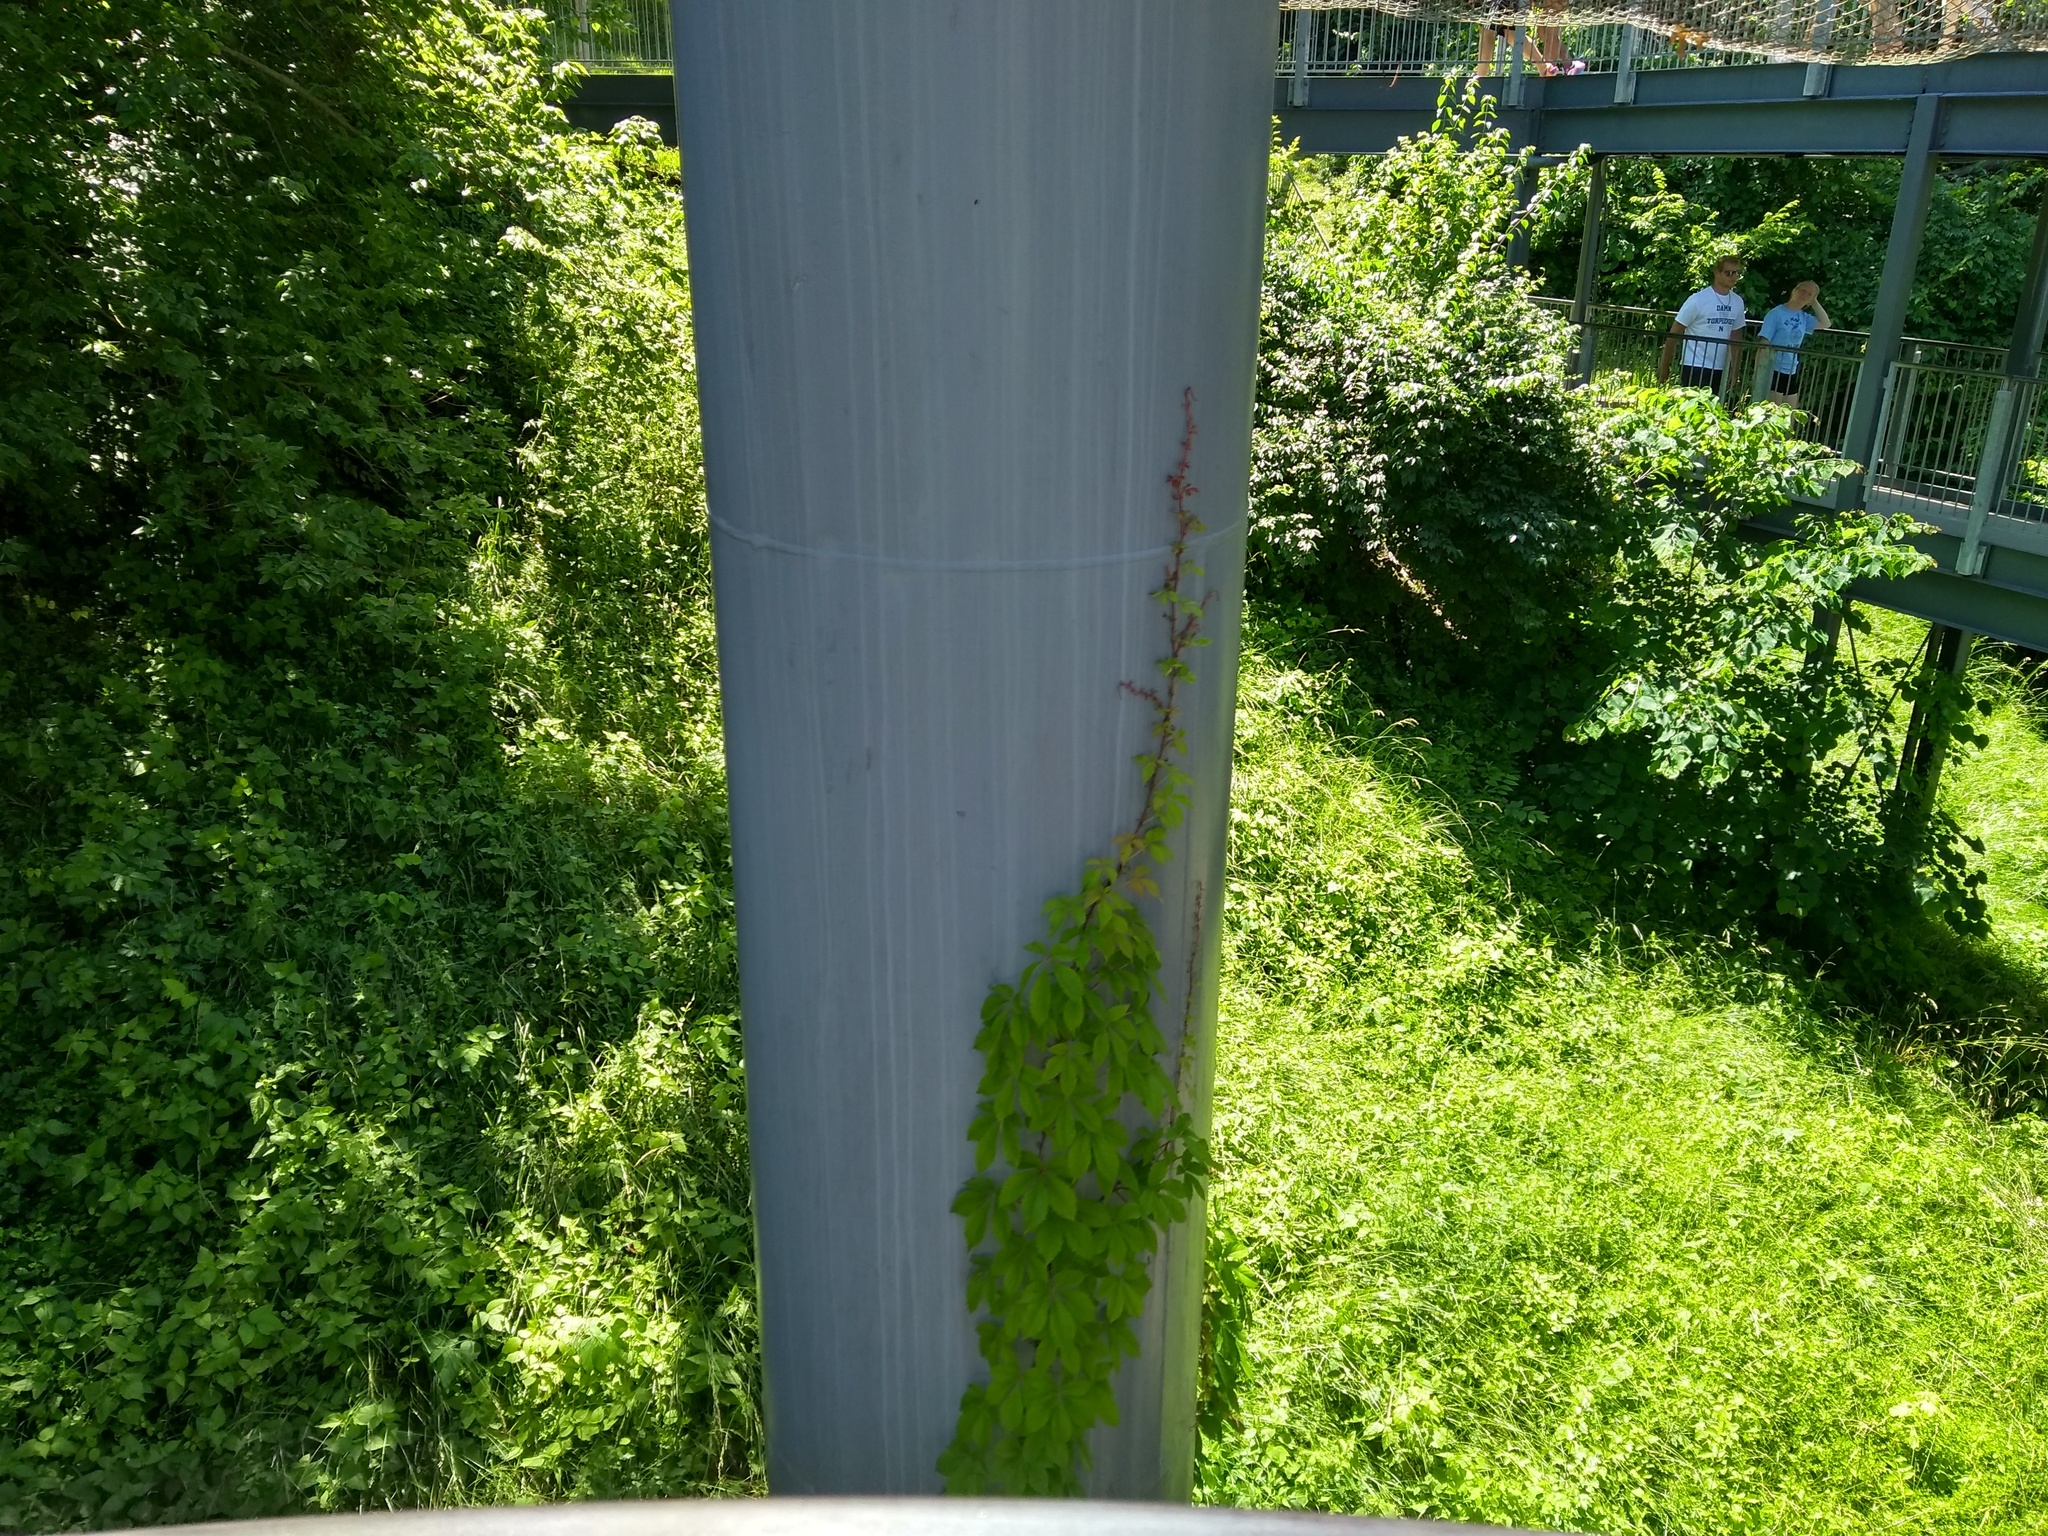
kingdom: Plantae
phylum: Tracheophyta
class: Magnoliopsida
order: Vitales
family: Vitaceae
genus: Parthenocissus
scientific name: Parthenocissus quinquefolia
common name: Virginia-creeper
